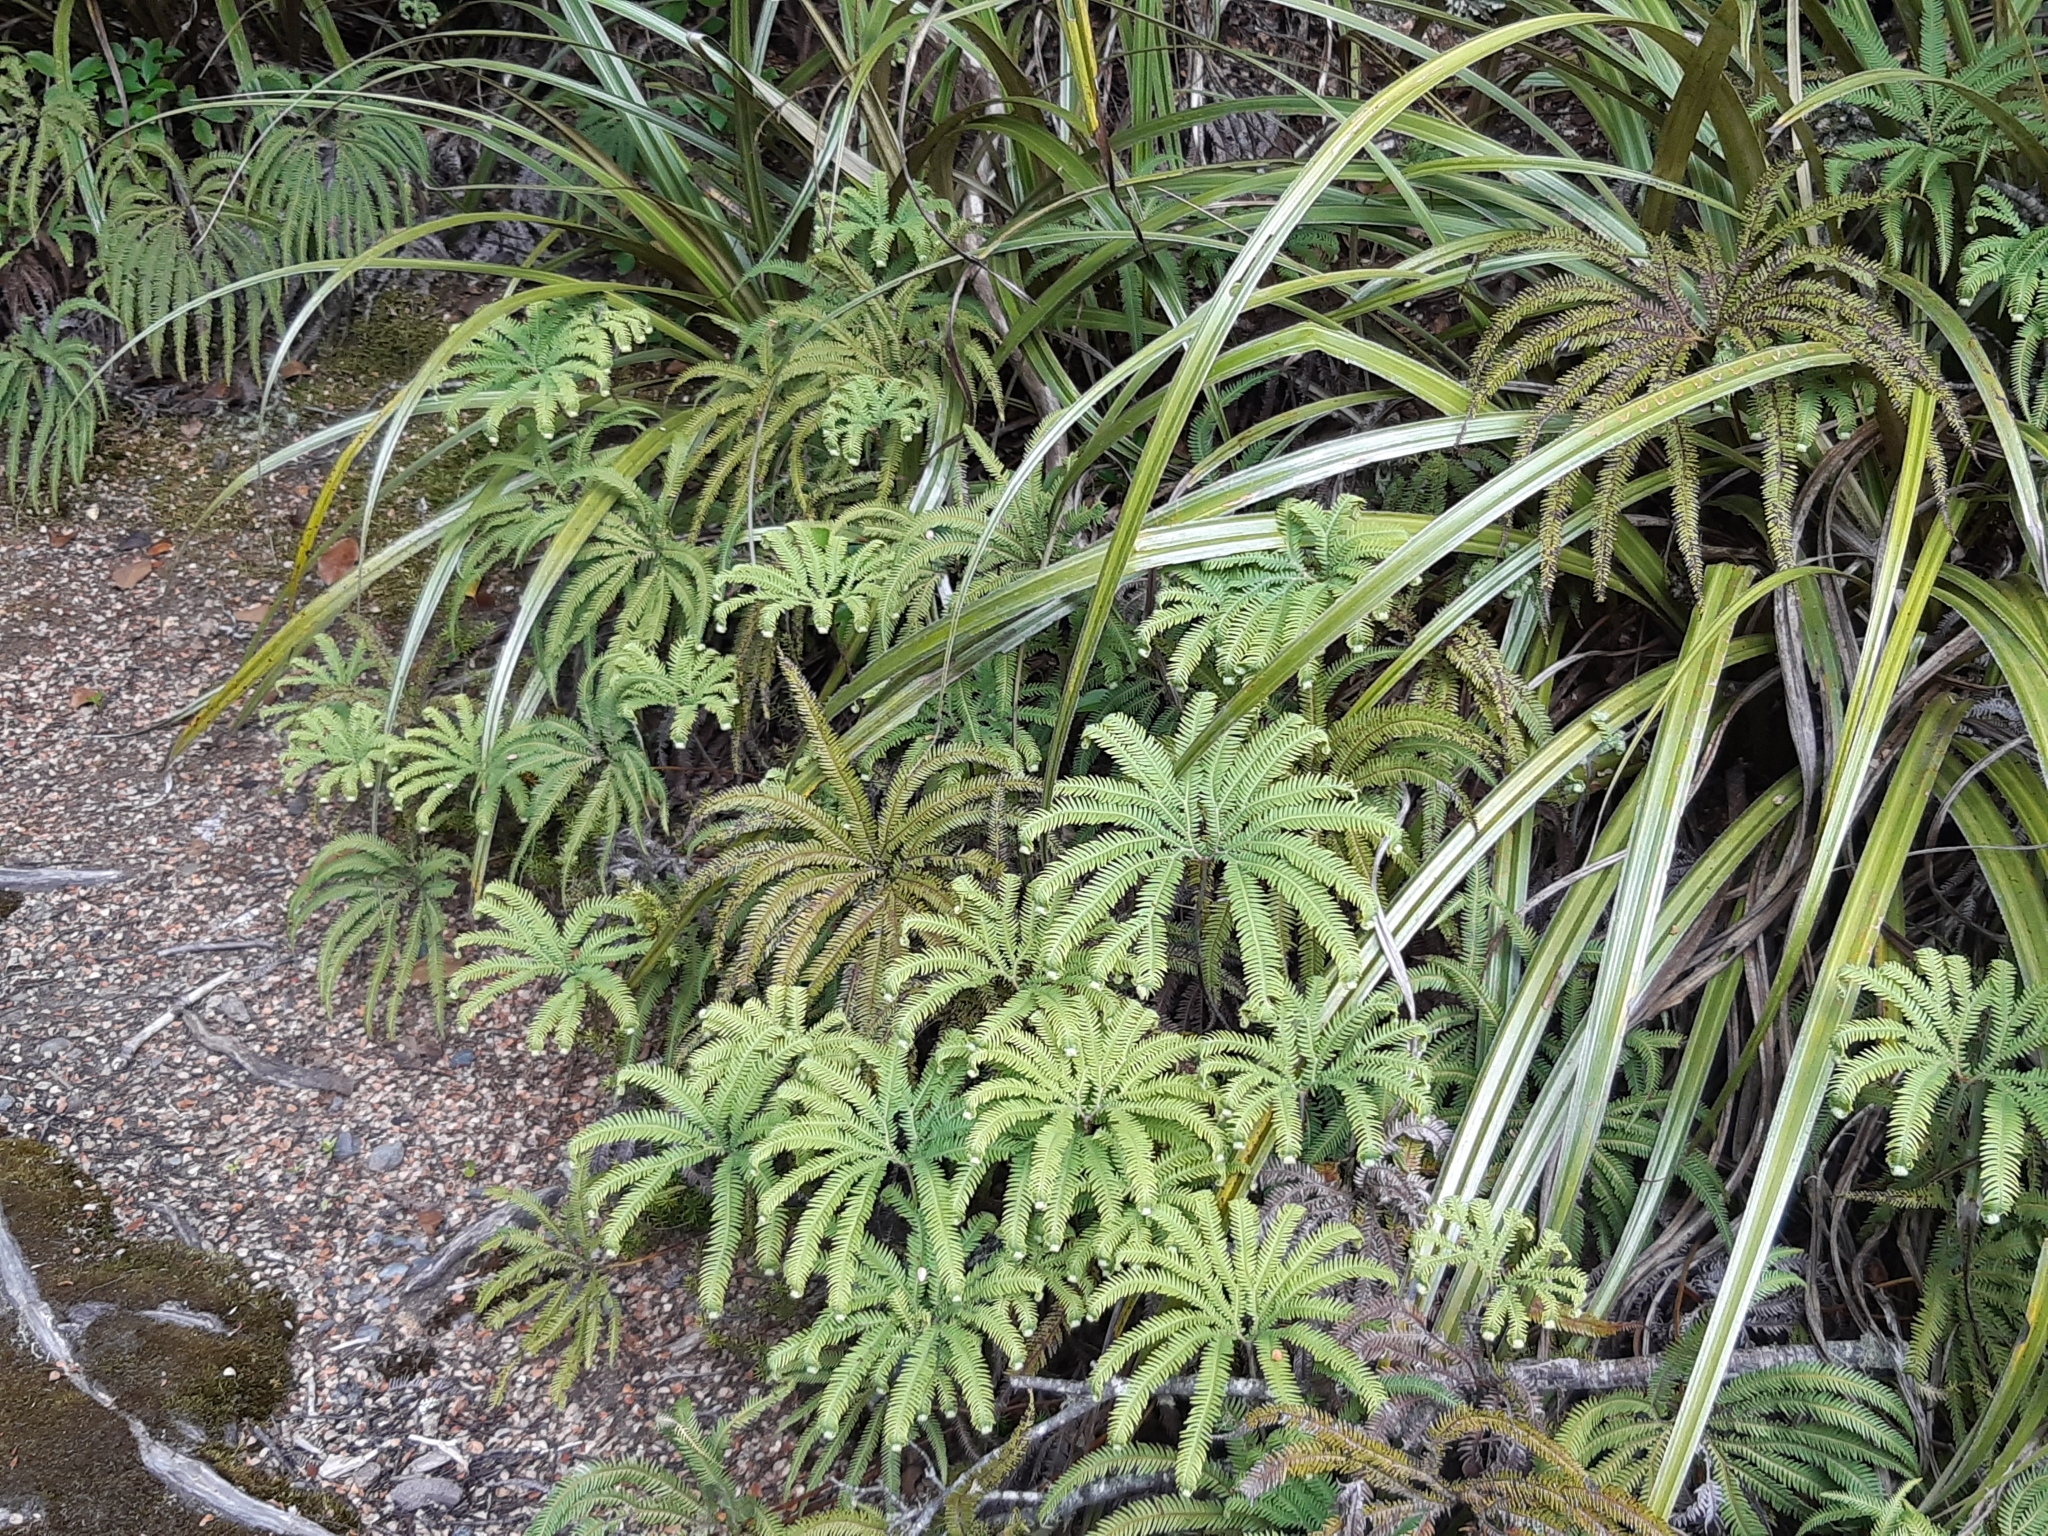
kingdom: Plantae
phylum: Tracheophyta
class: Polypodiopsida
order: Gleicheniales
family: Gleicheniaceae
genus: Sticherus
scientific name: Sticherus cunninghamii
